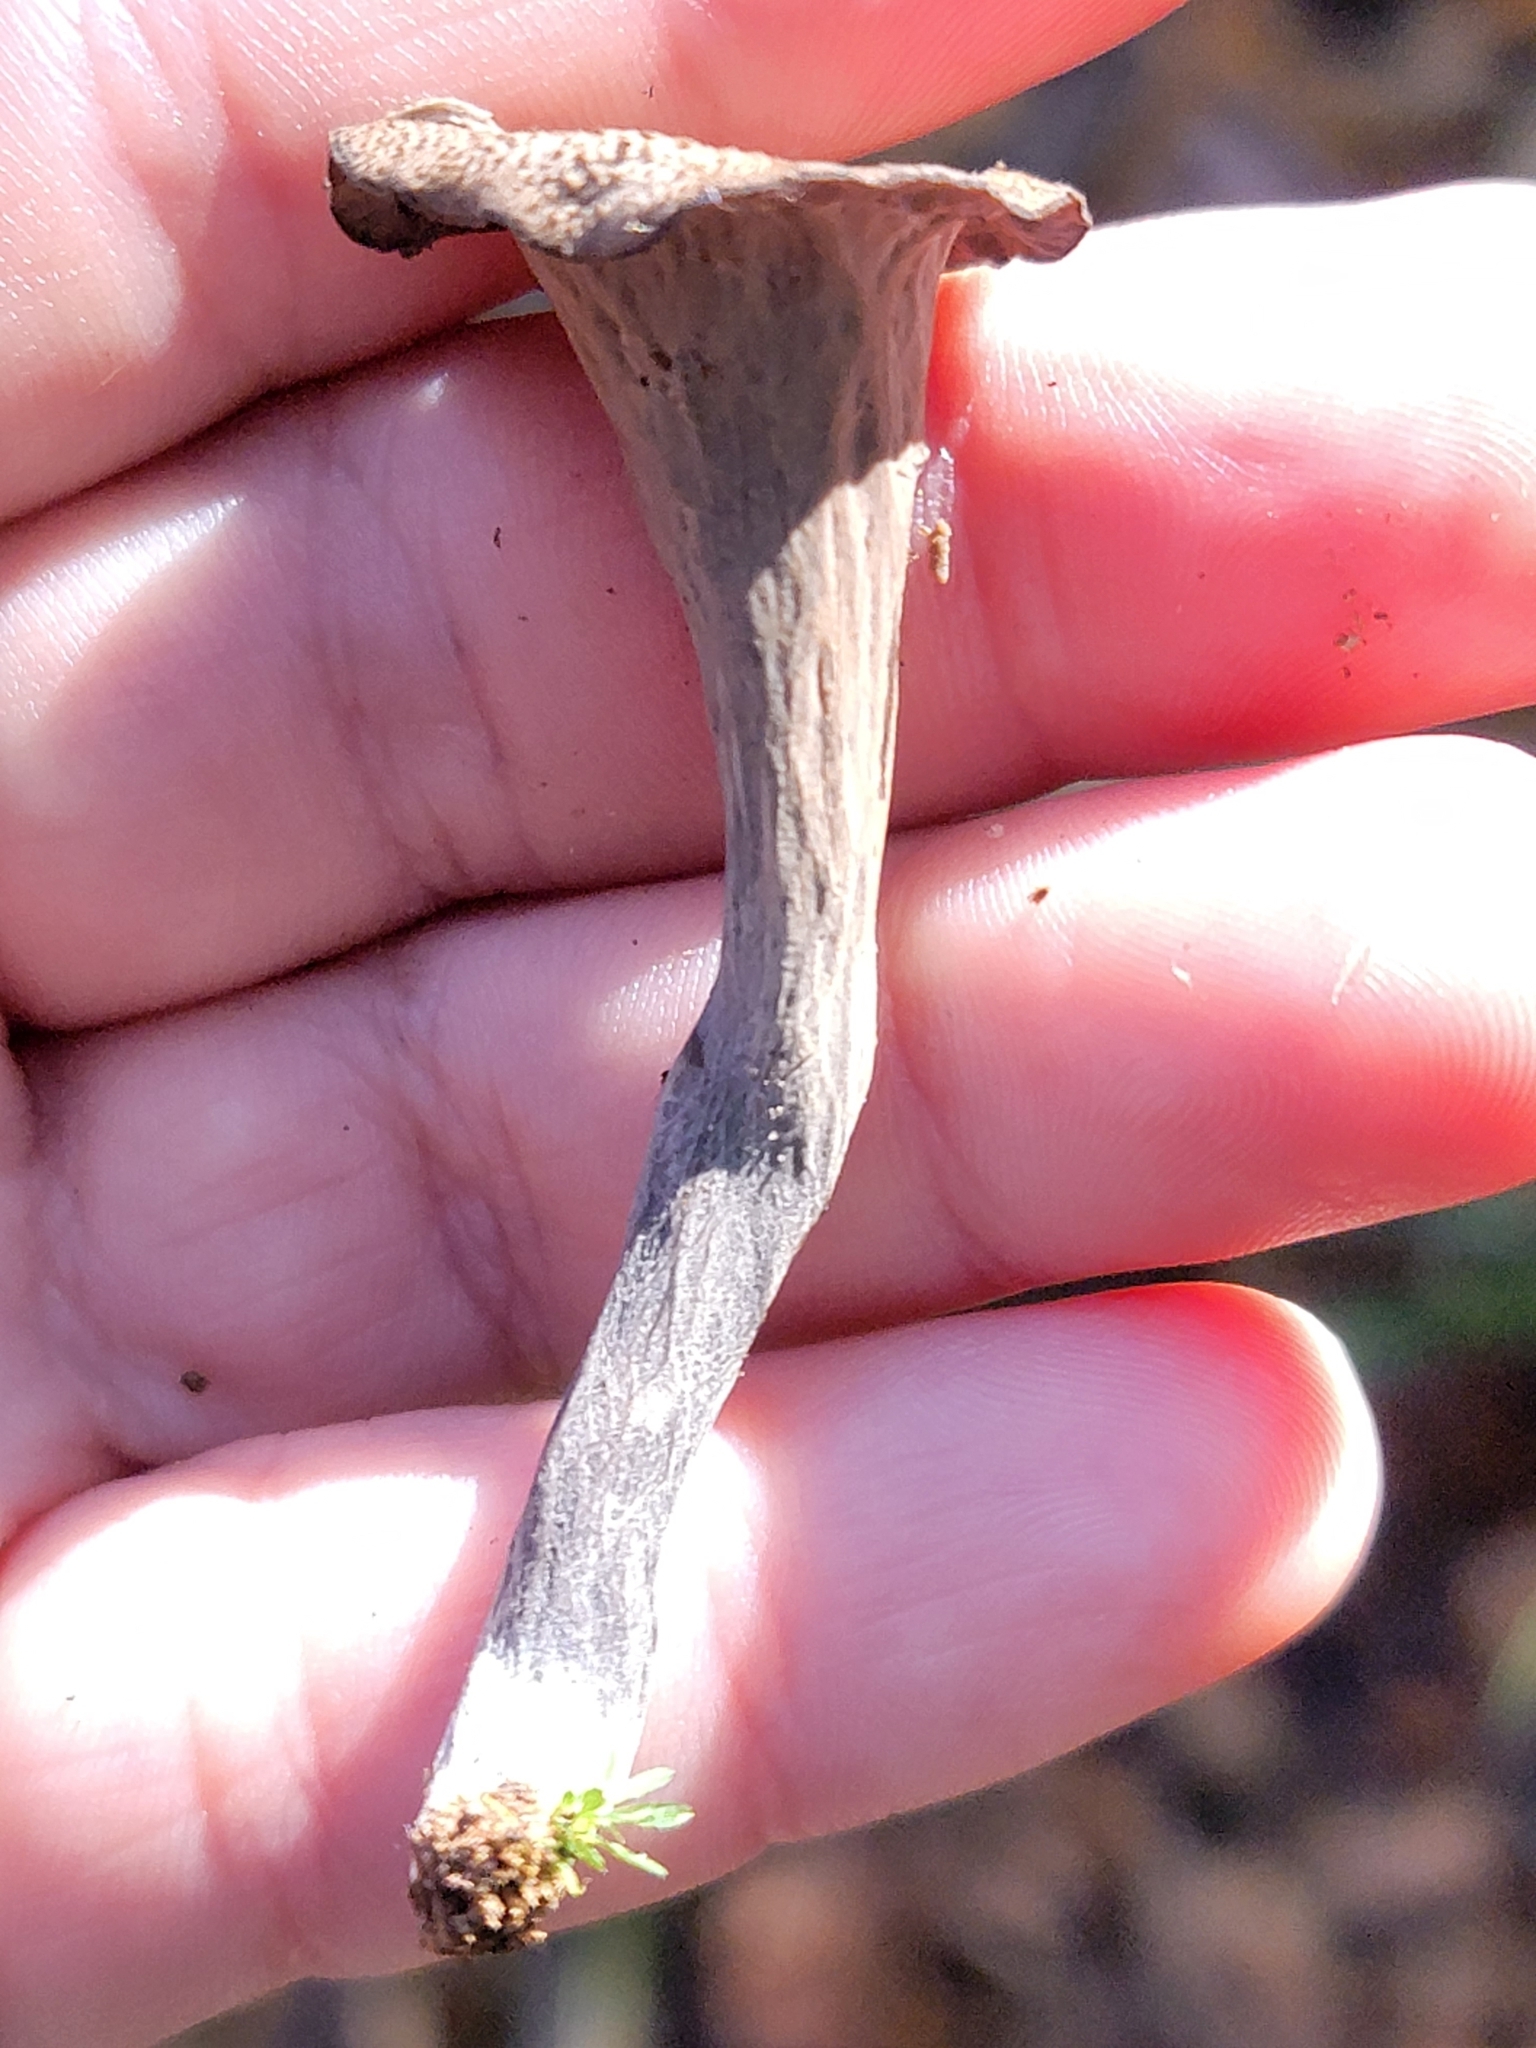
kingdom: Fungi
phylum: Basidiomycota
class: Agaricomycetes
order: Cantharellales
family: Hydnaceae
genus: Craterellus
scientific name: Craterellus cornucopioides
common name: Horn of plenty
